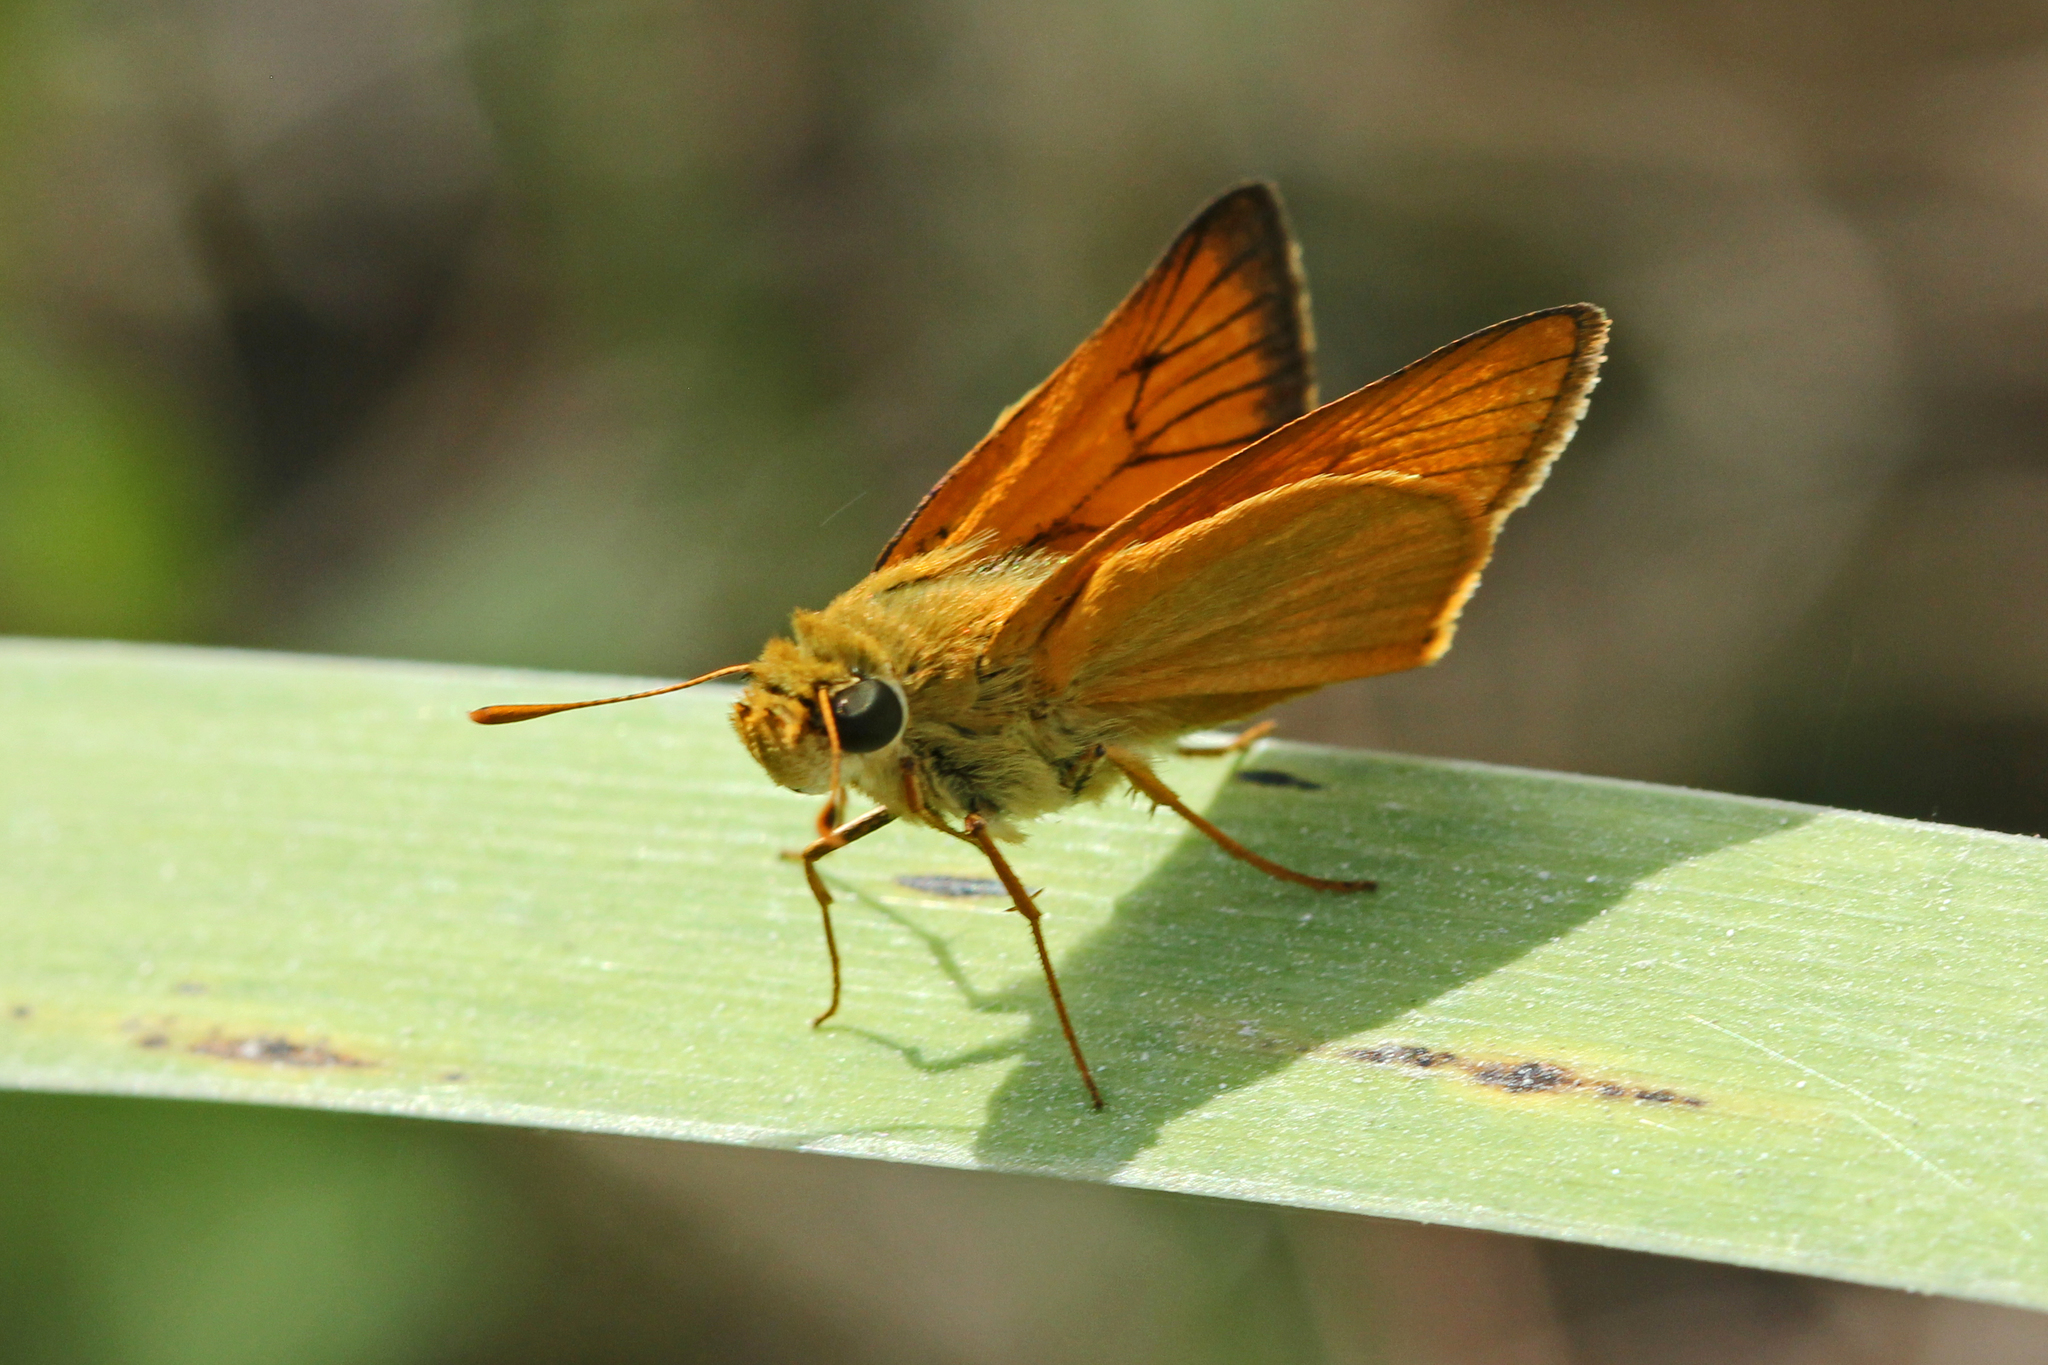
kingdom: Animalia
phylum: Arthropoda
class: Insecta
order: Lepidoptera
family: Hesperiidae
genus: Atrytone
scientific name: Atrytone delaware
